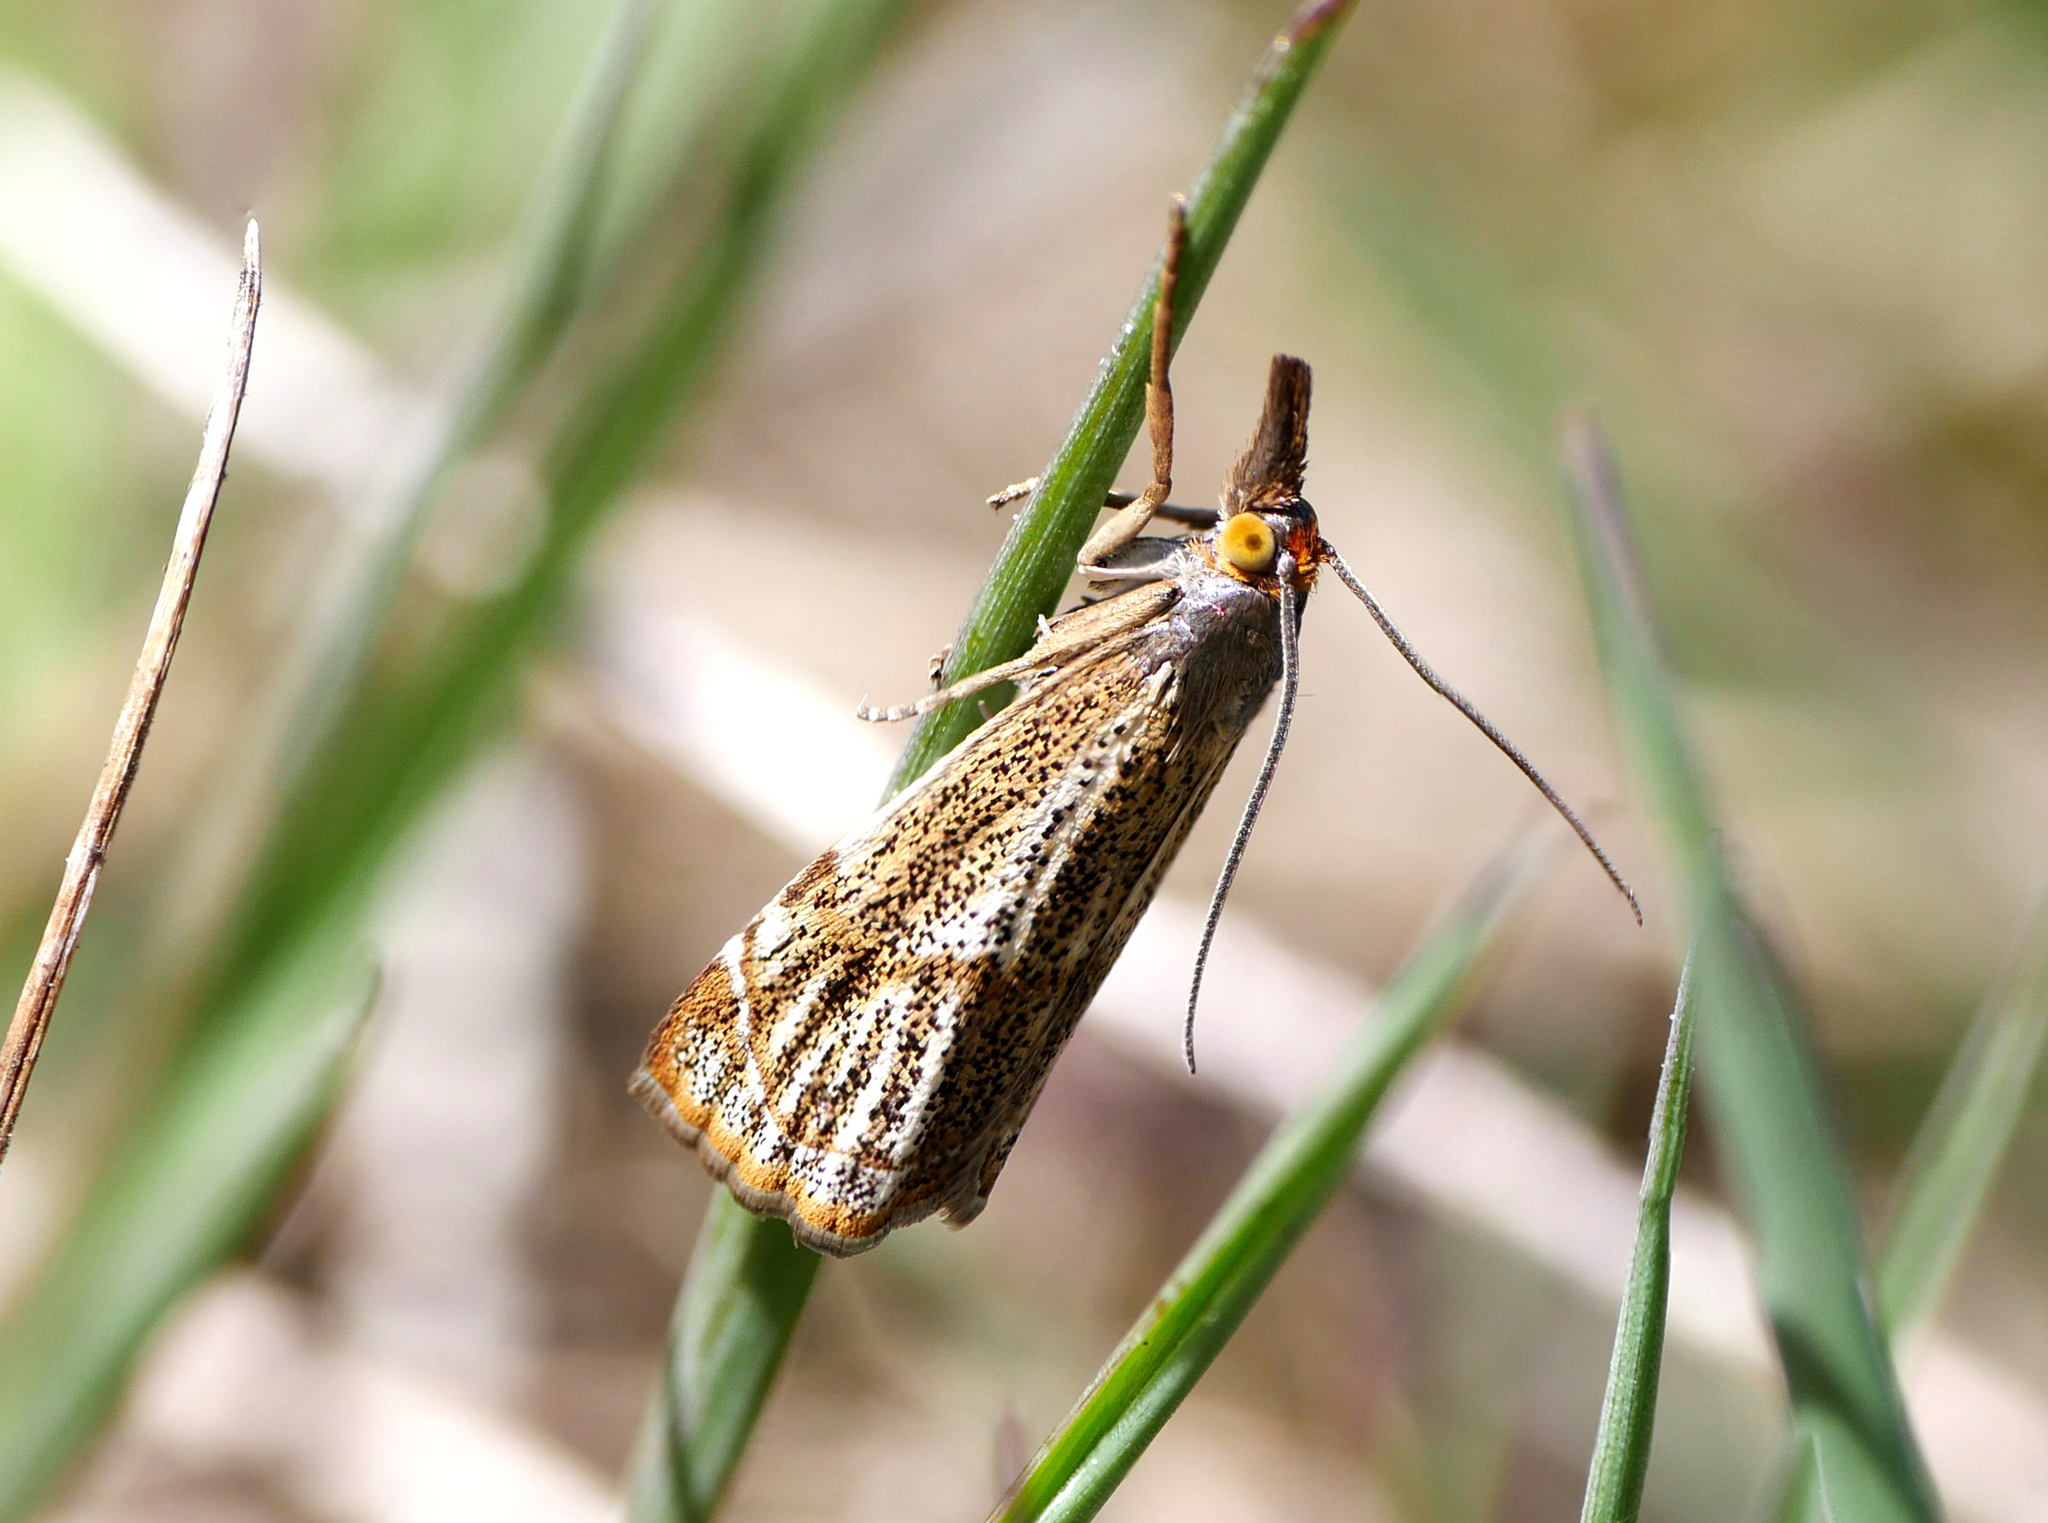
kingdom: Animalia
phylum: Arthropoda
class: Insecta
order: Lepidoptera
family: Crambidae
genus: Thisanotia
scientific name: Thisanotia chrysonuchella
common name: Powdered grass-veneer
